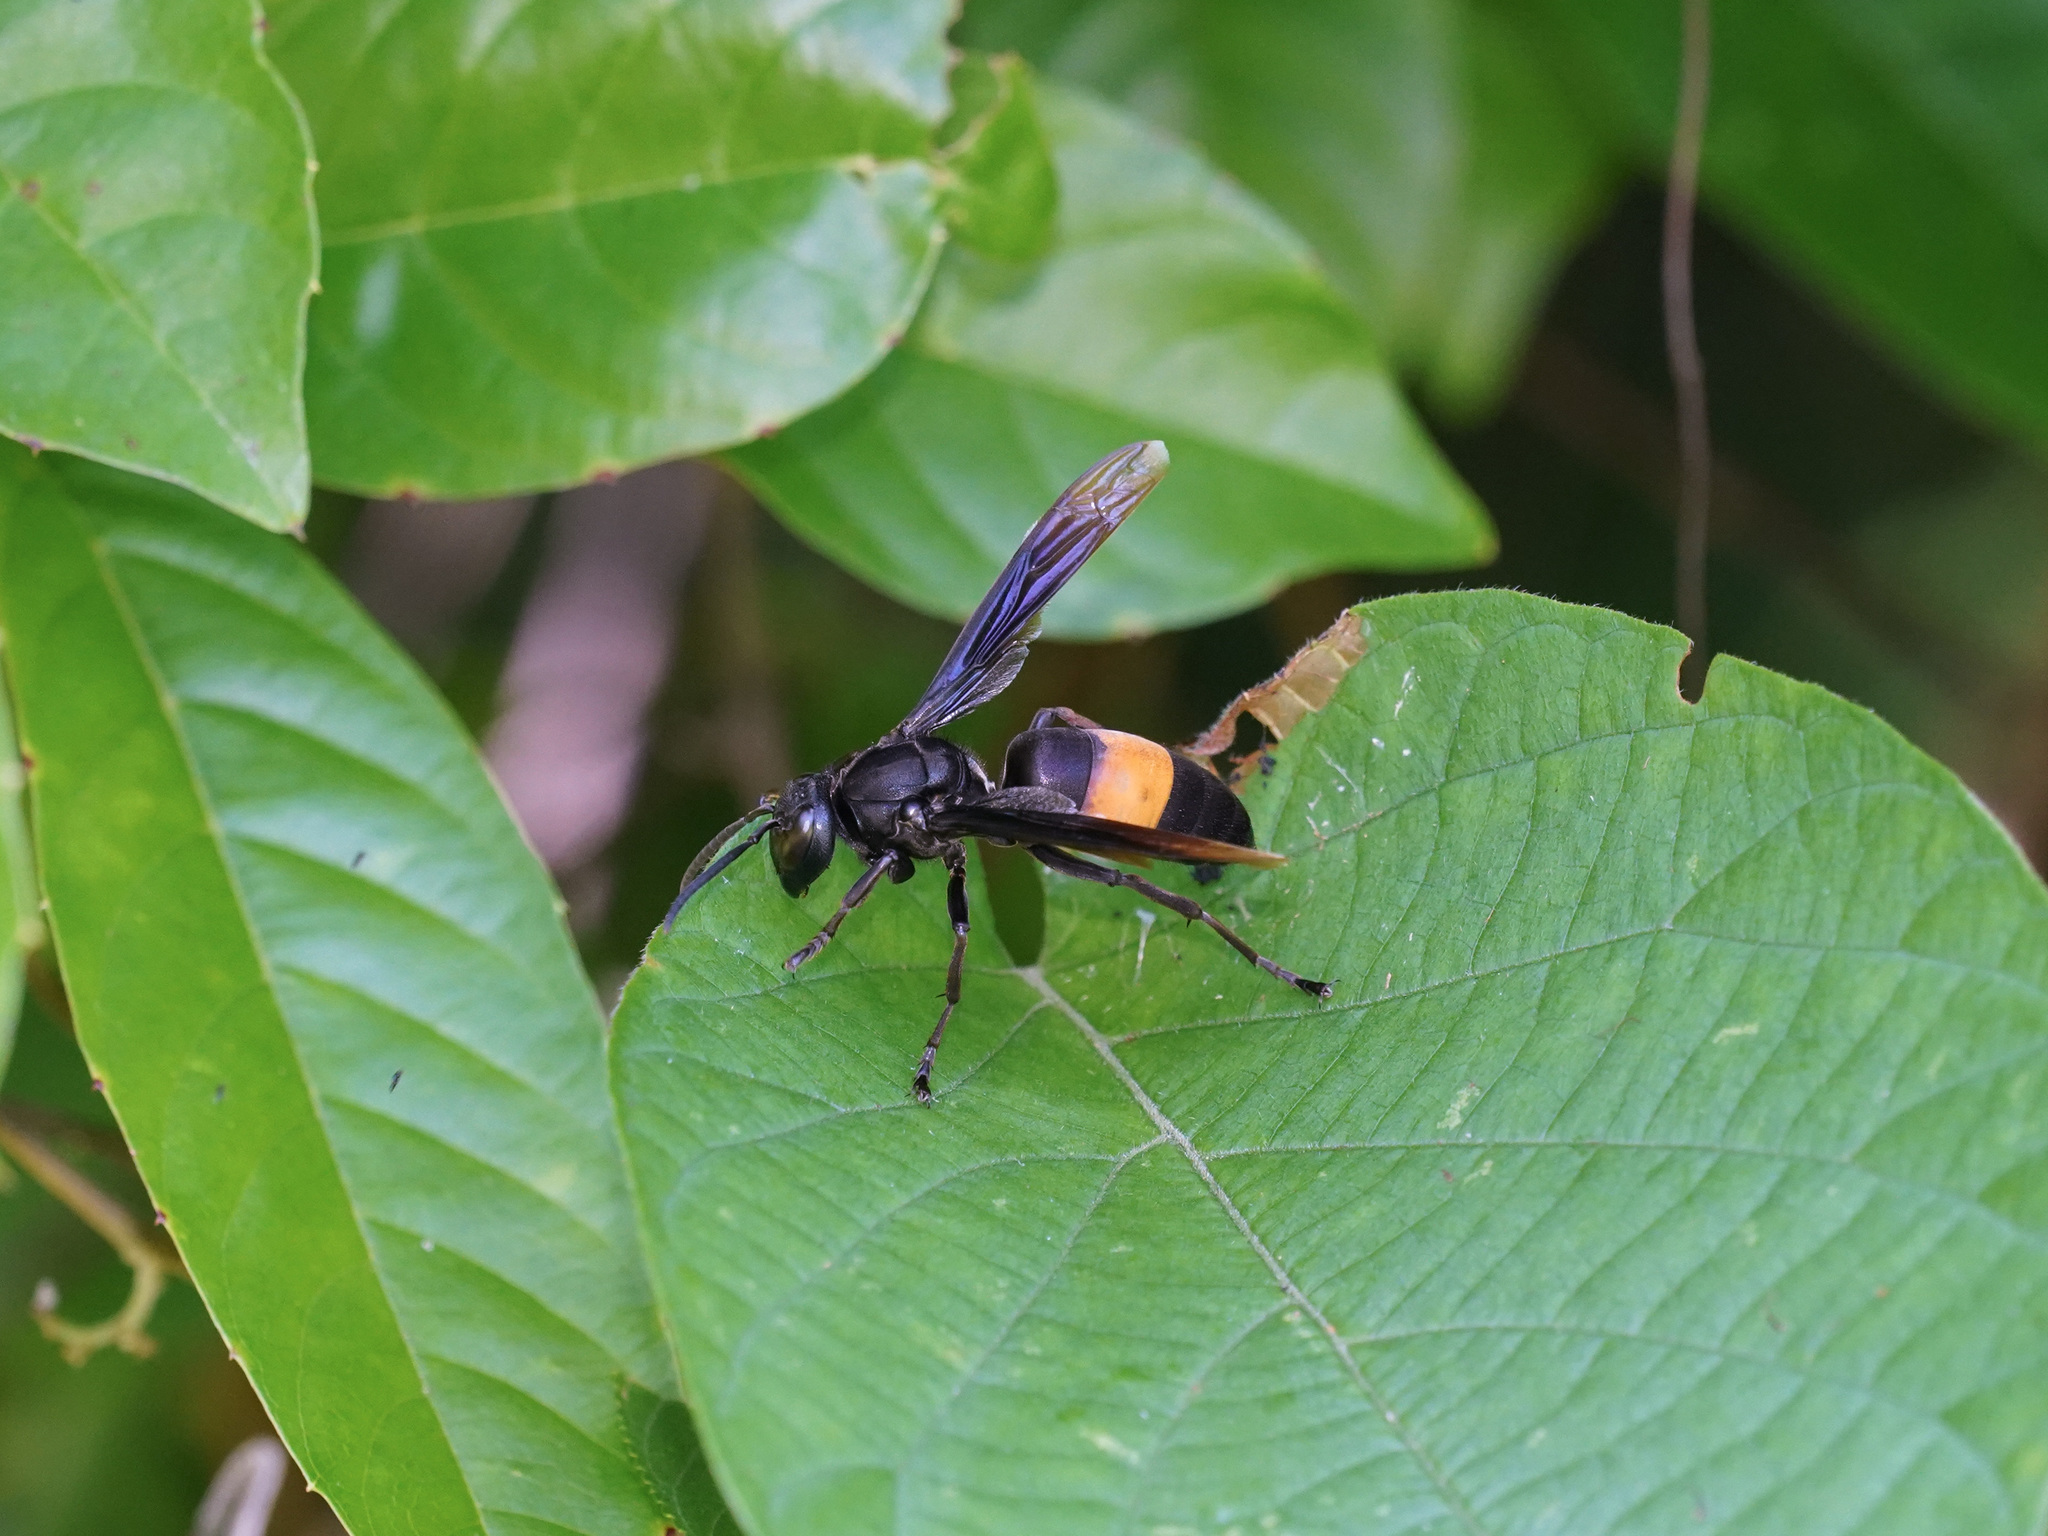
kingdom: Animalia
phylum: Arthropoda
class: Insecta
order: Hymenoptera
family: Vespidae
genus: Vespa
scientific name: Vespa tropica
